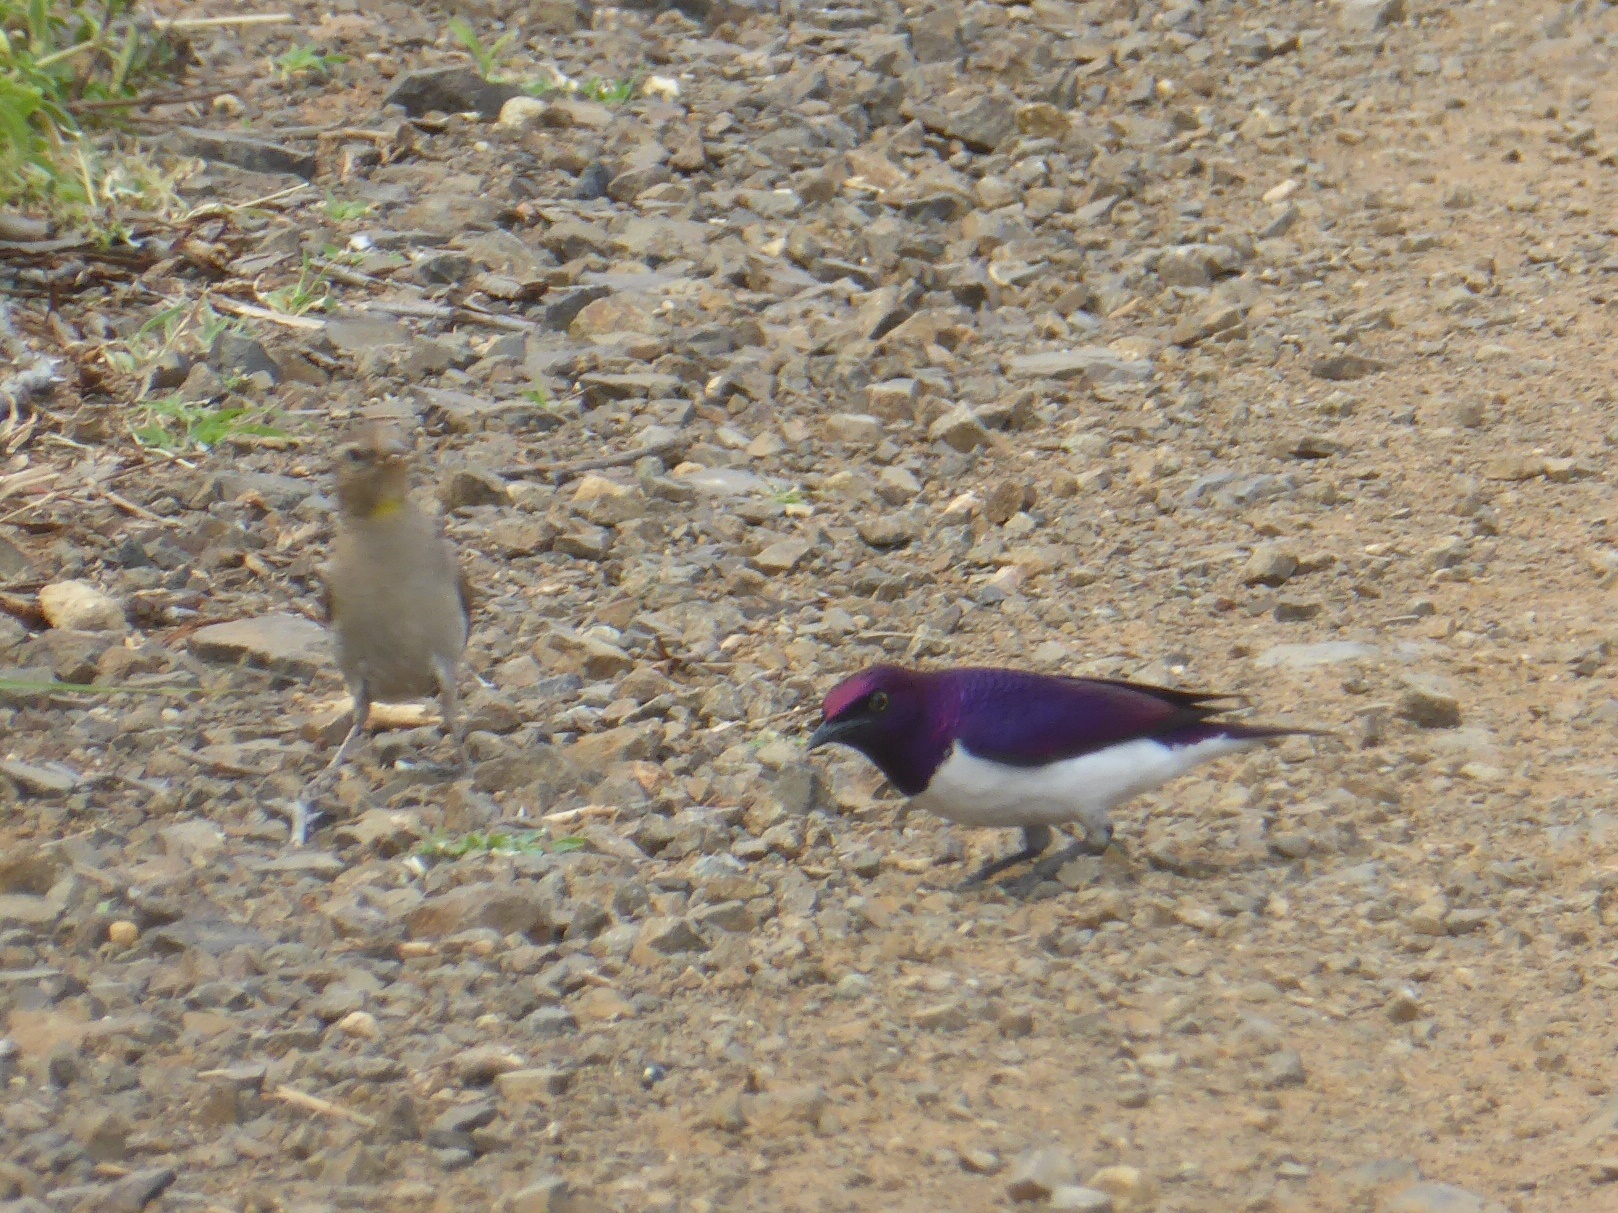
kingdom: Animalia
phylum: Chordata
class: Aves
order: Passeriformes
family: Sturnidae
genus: Cinnyricinclus
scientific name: Cinnyricinclus leucogaster
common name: Violet-backed starling
